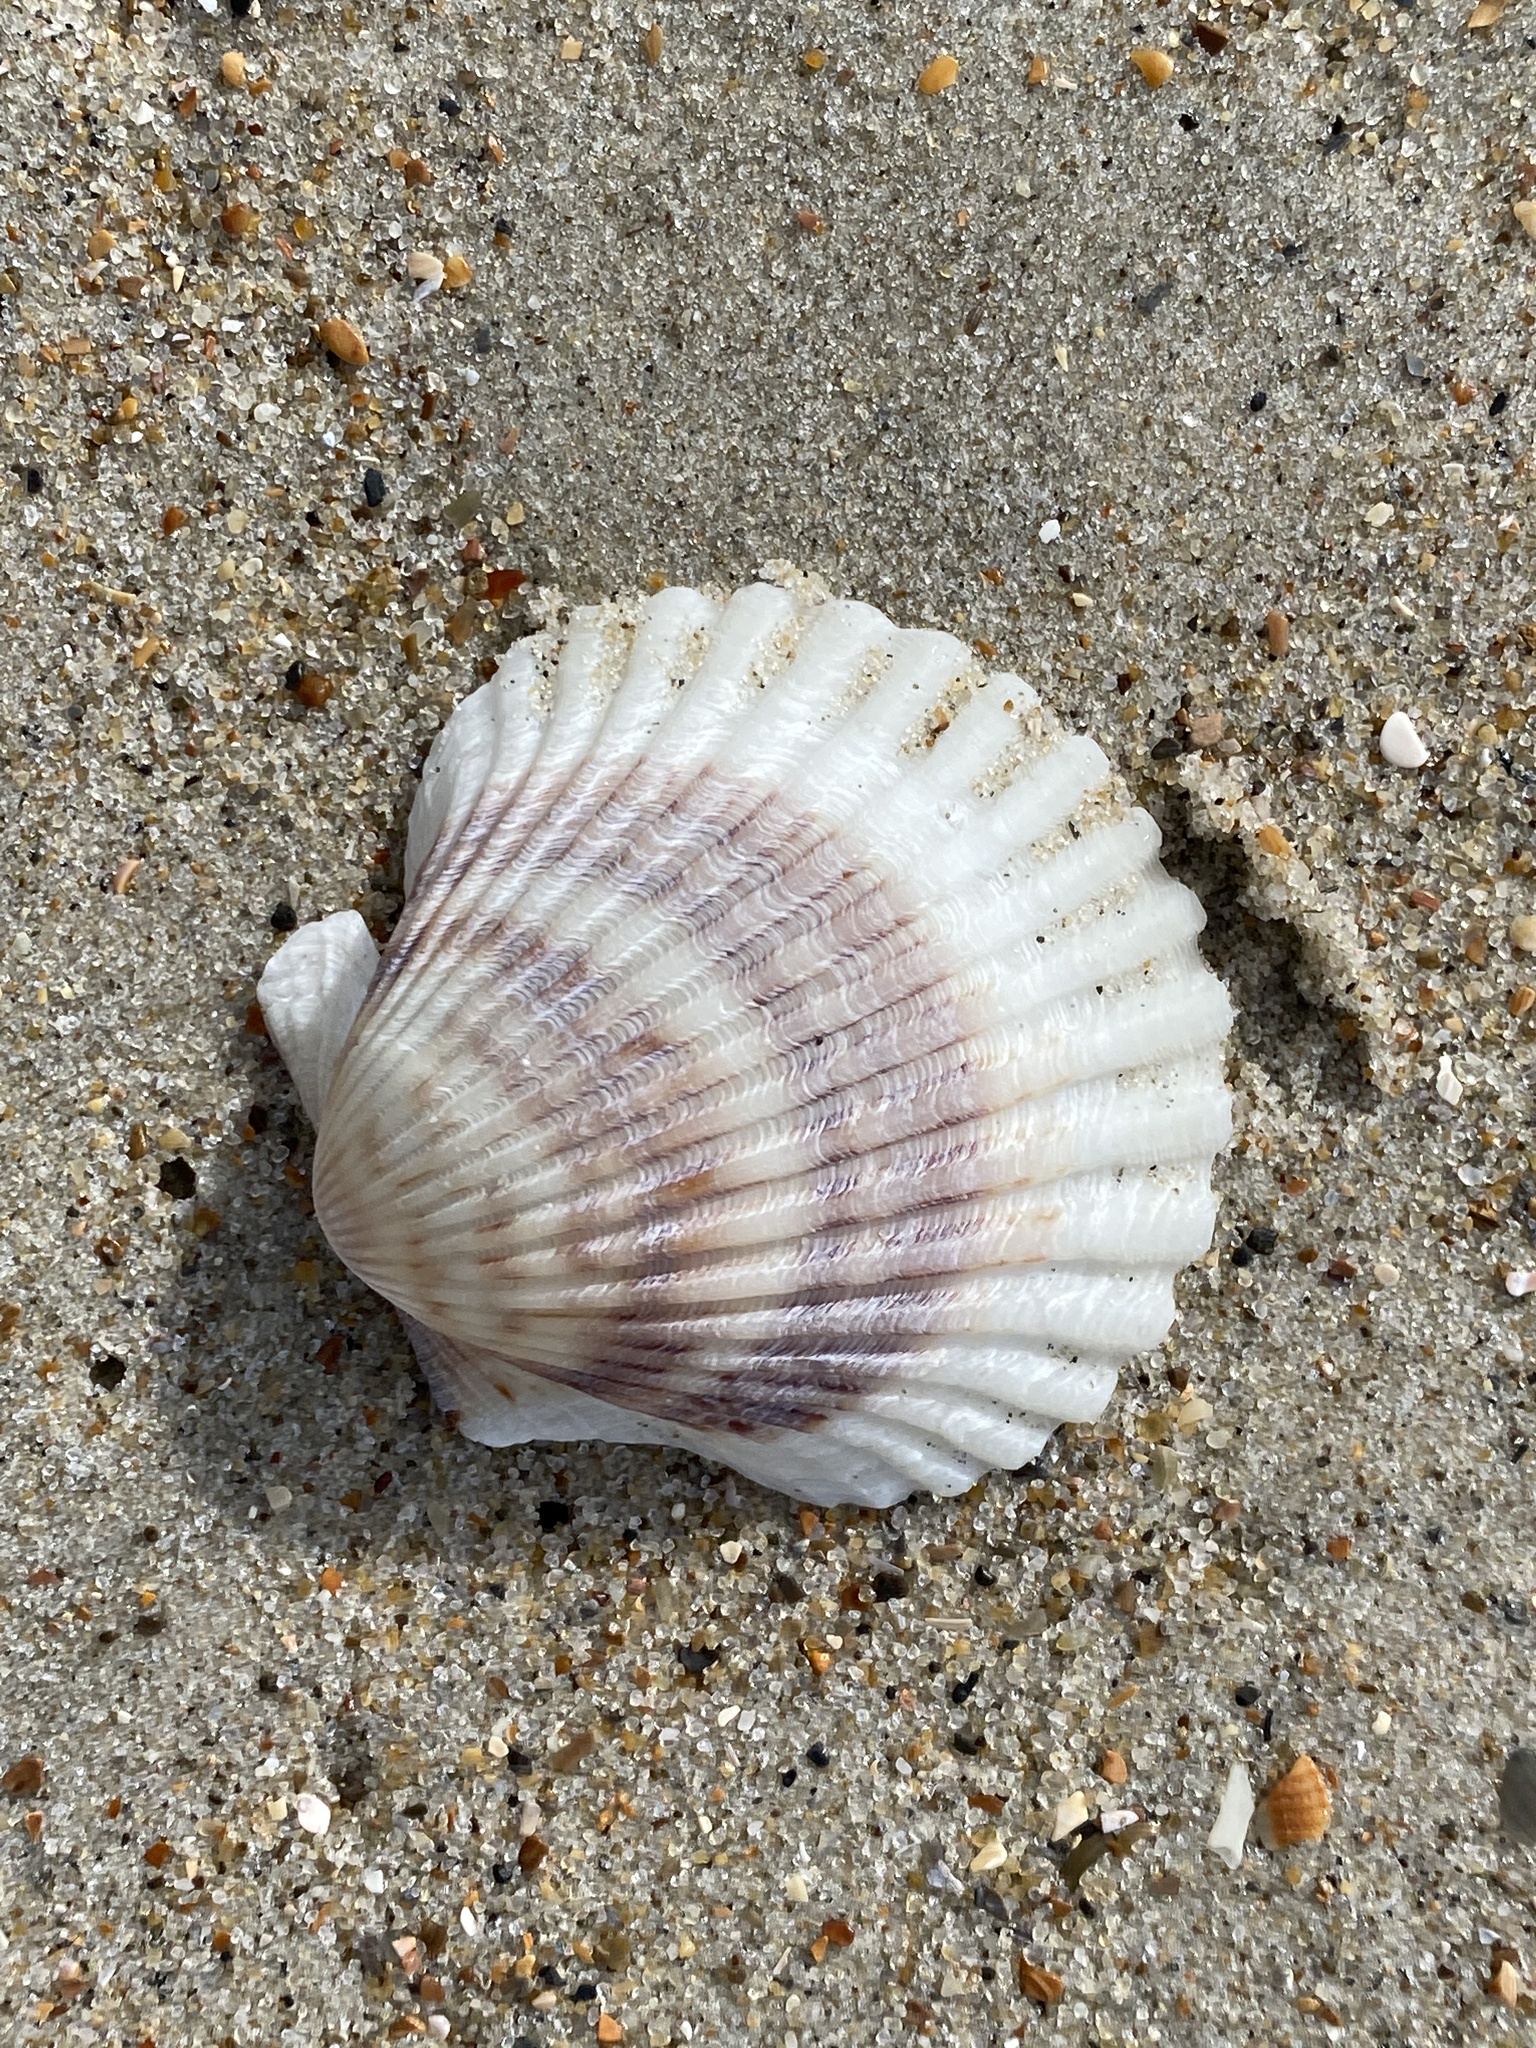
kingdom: Animalia
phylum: Mollusca
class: Bivalvia
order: Pectinida
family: Pectinidae
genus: Argopecten
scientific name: Argopecten irradians
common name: Atlantic bay scallop
